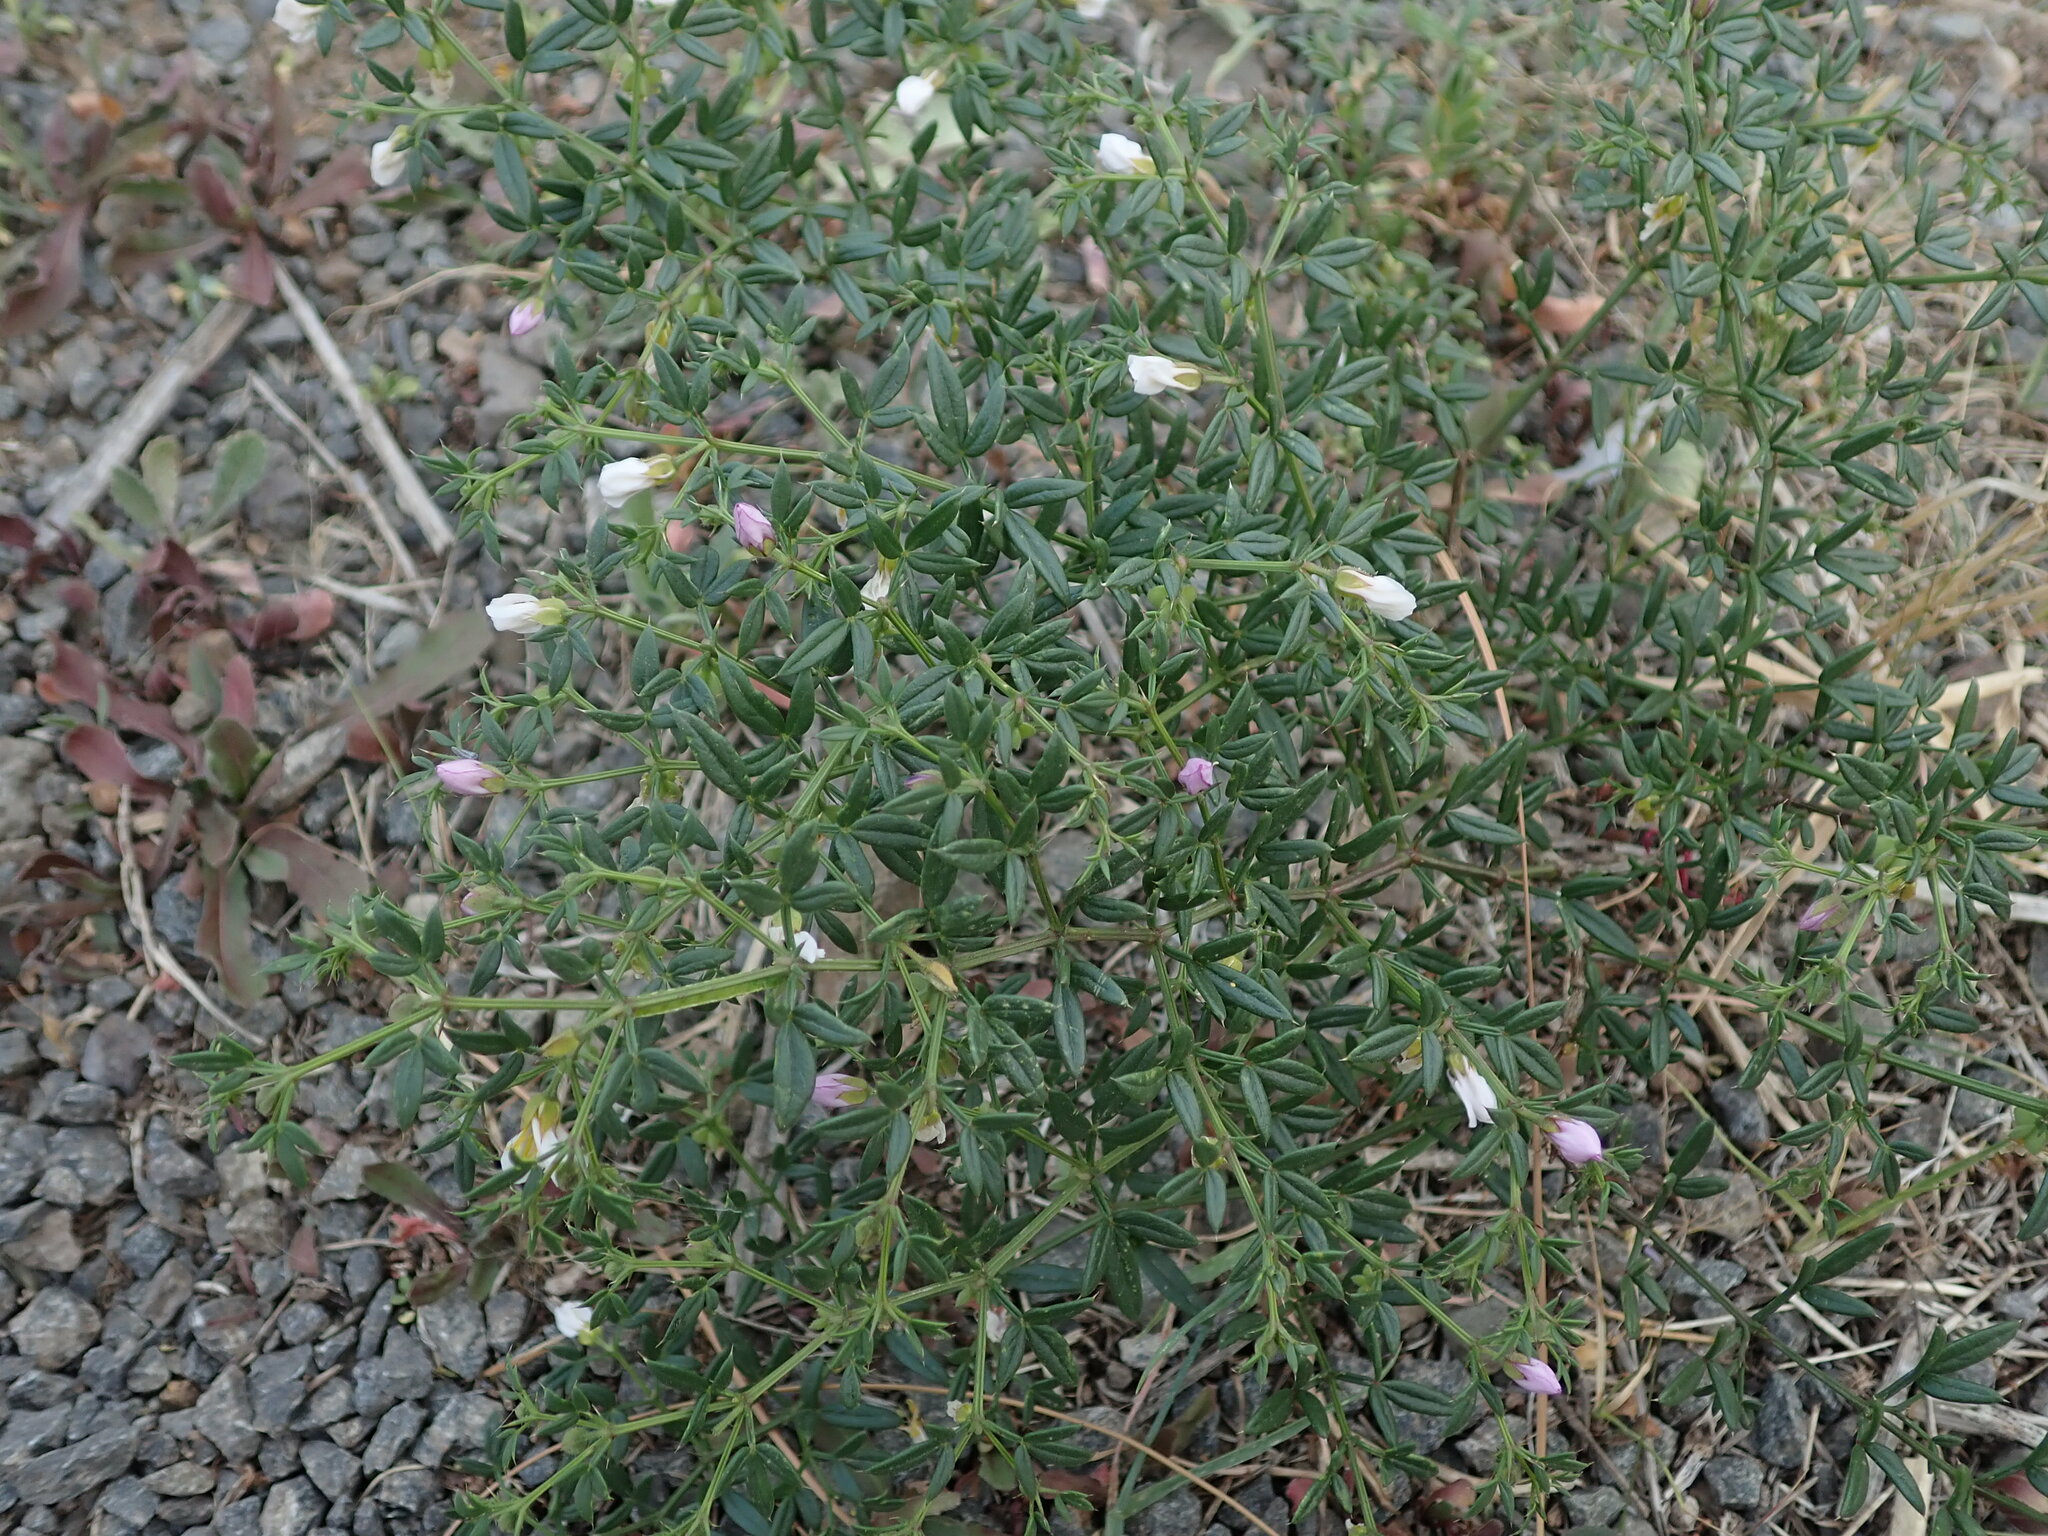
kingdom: Plantae
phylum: Tracheophyta
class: Magnoliopsida
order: Zygophyllales
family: Zygophyllaceae
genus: Fagonia
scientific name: Fagonia cretica
